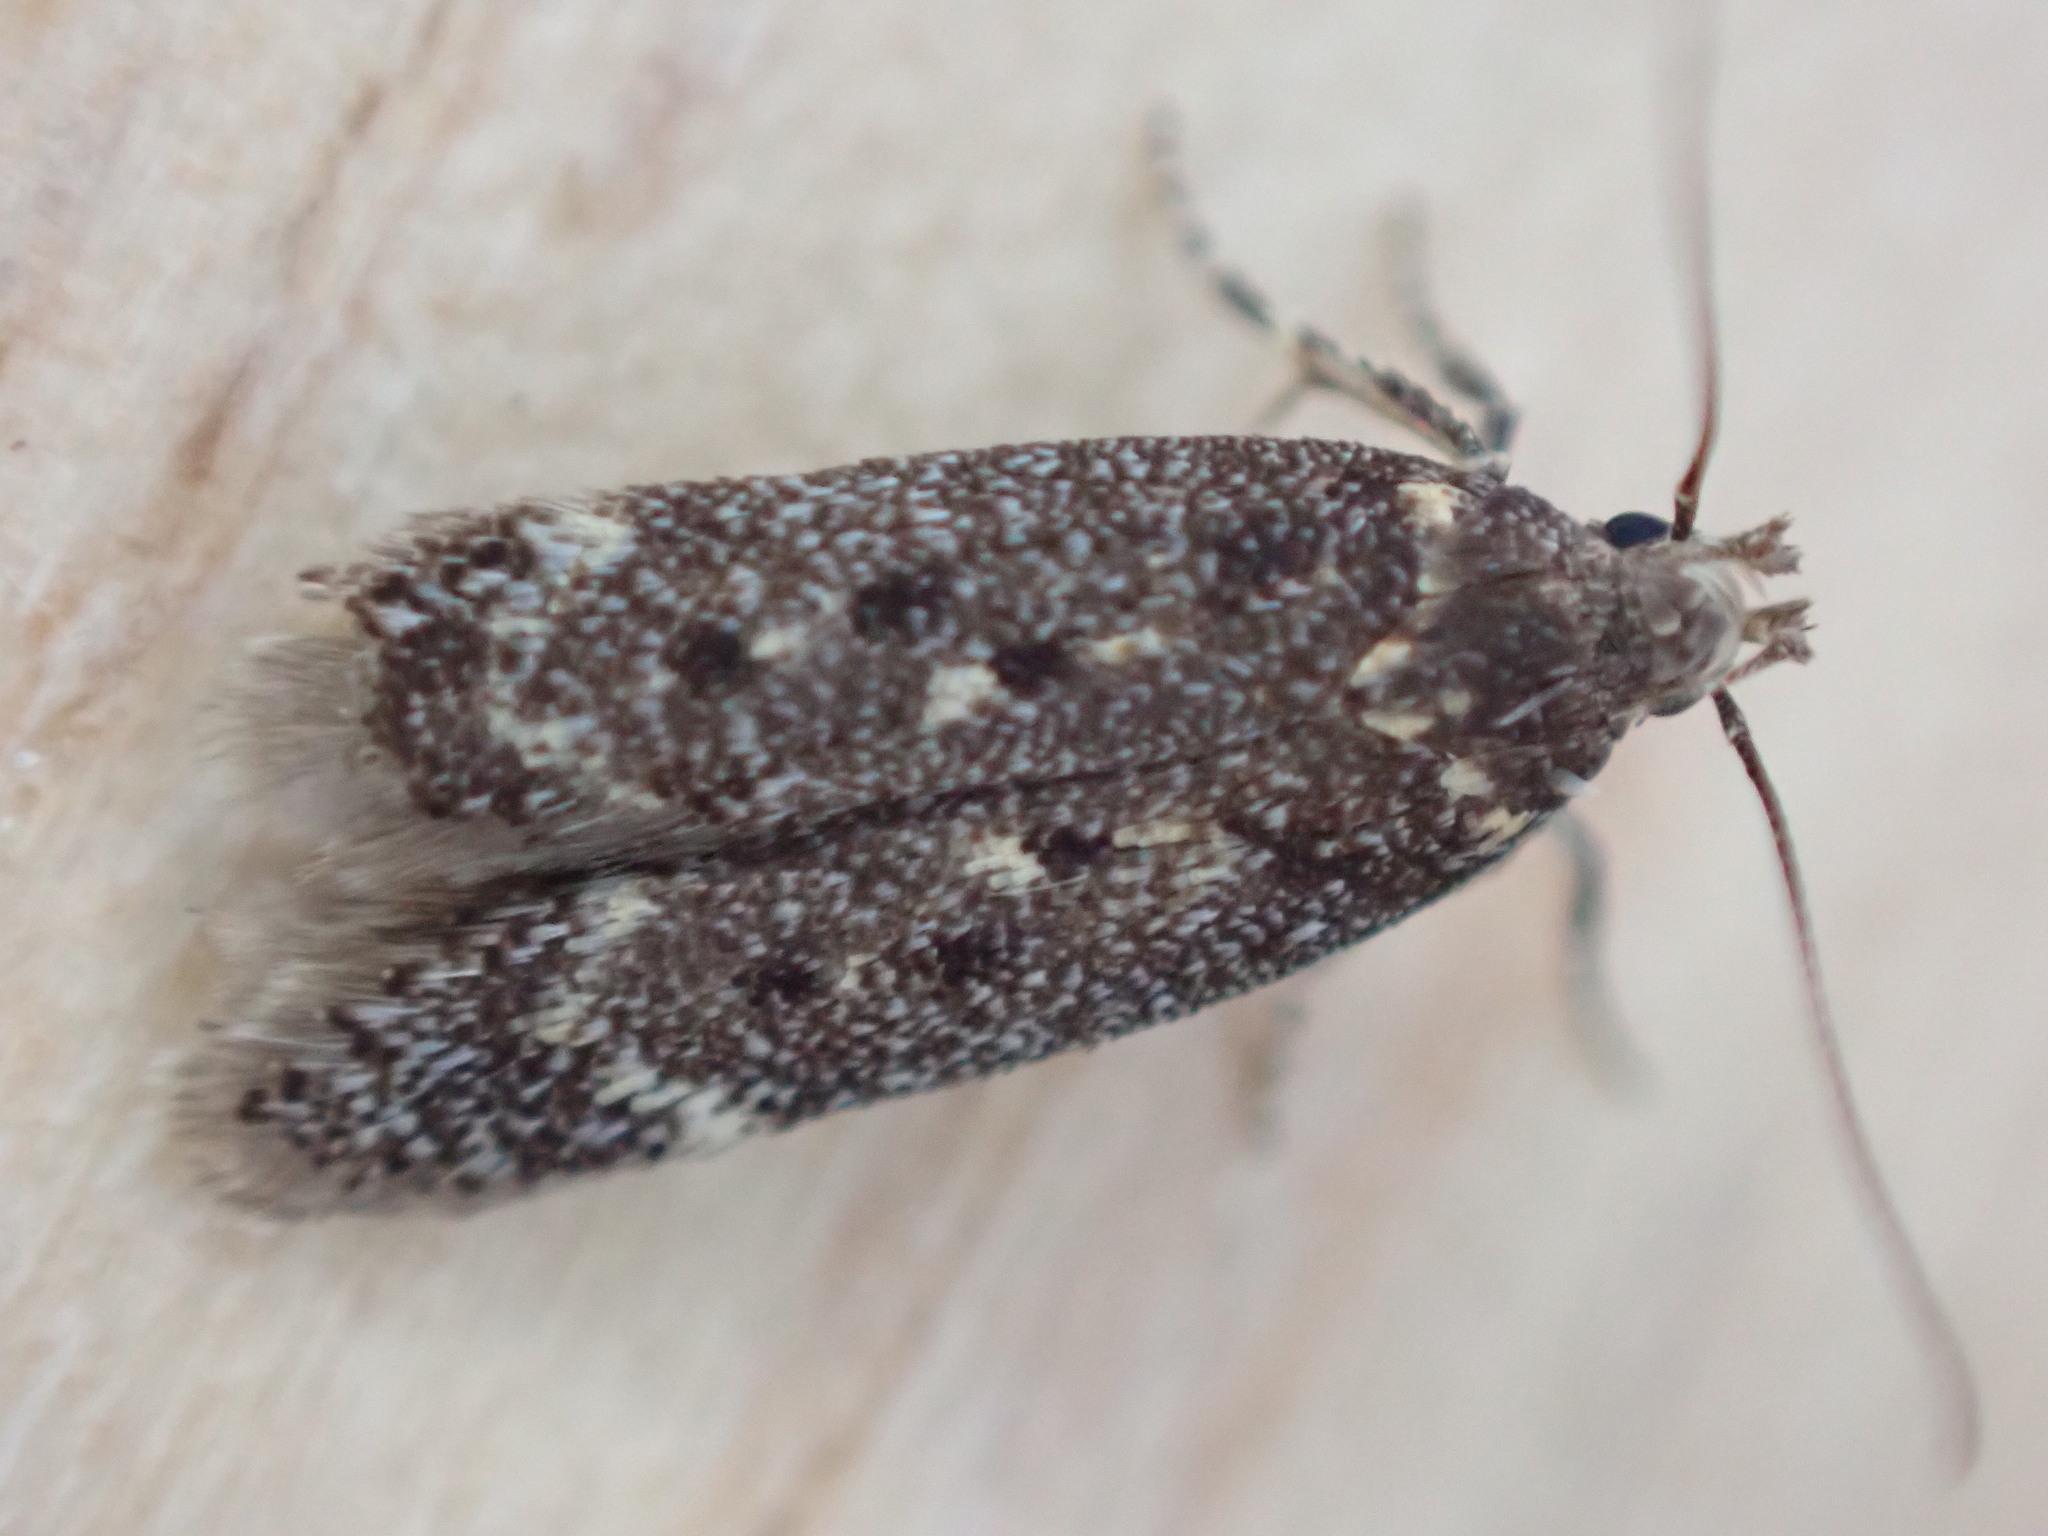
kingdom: Animalia
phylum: Arthropoda
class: Insecta
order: Lepidoptera
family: Gelechiidae
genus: Bryotropha
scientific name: Bryotropha affinis
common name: Dark groundling
